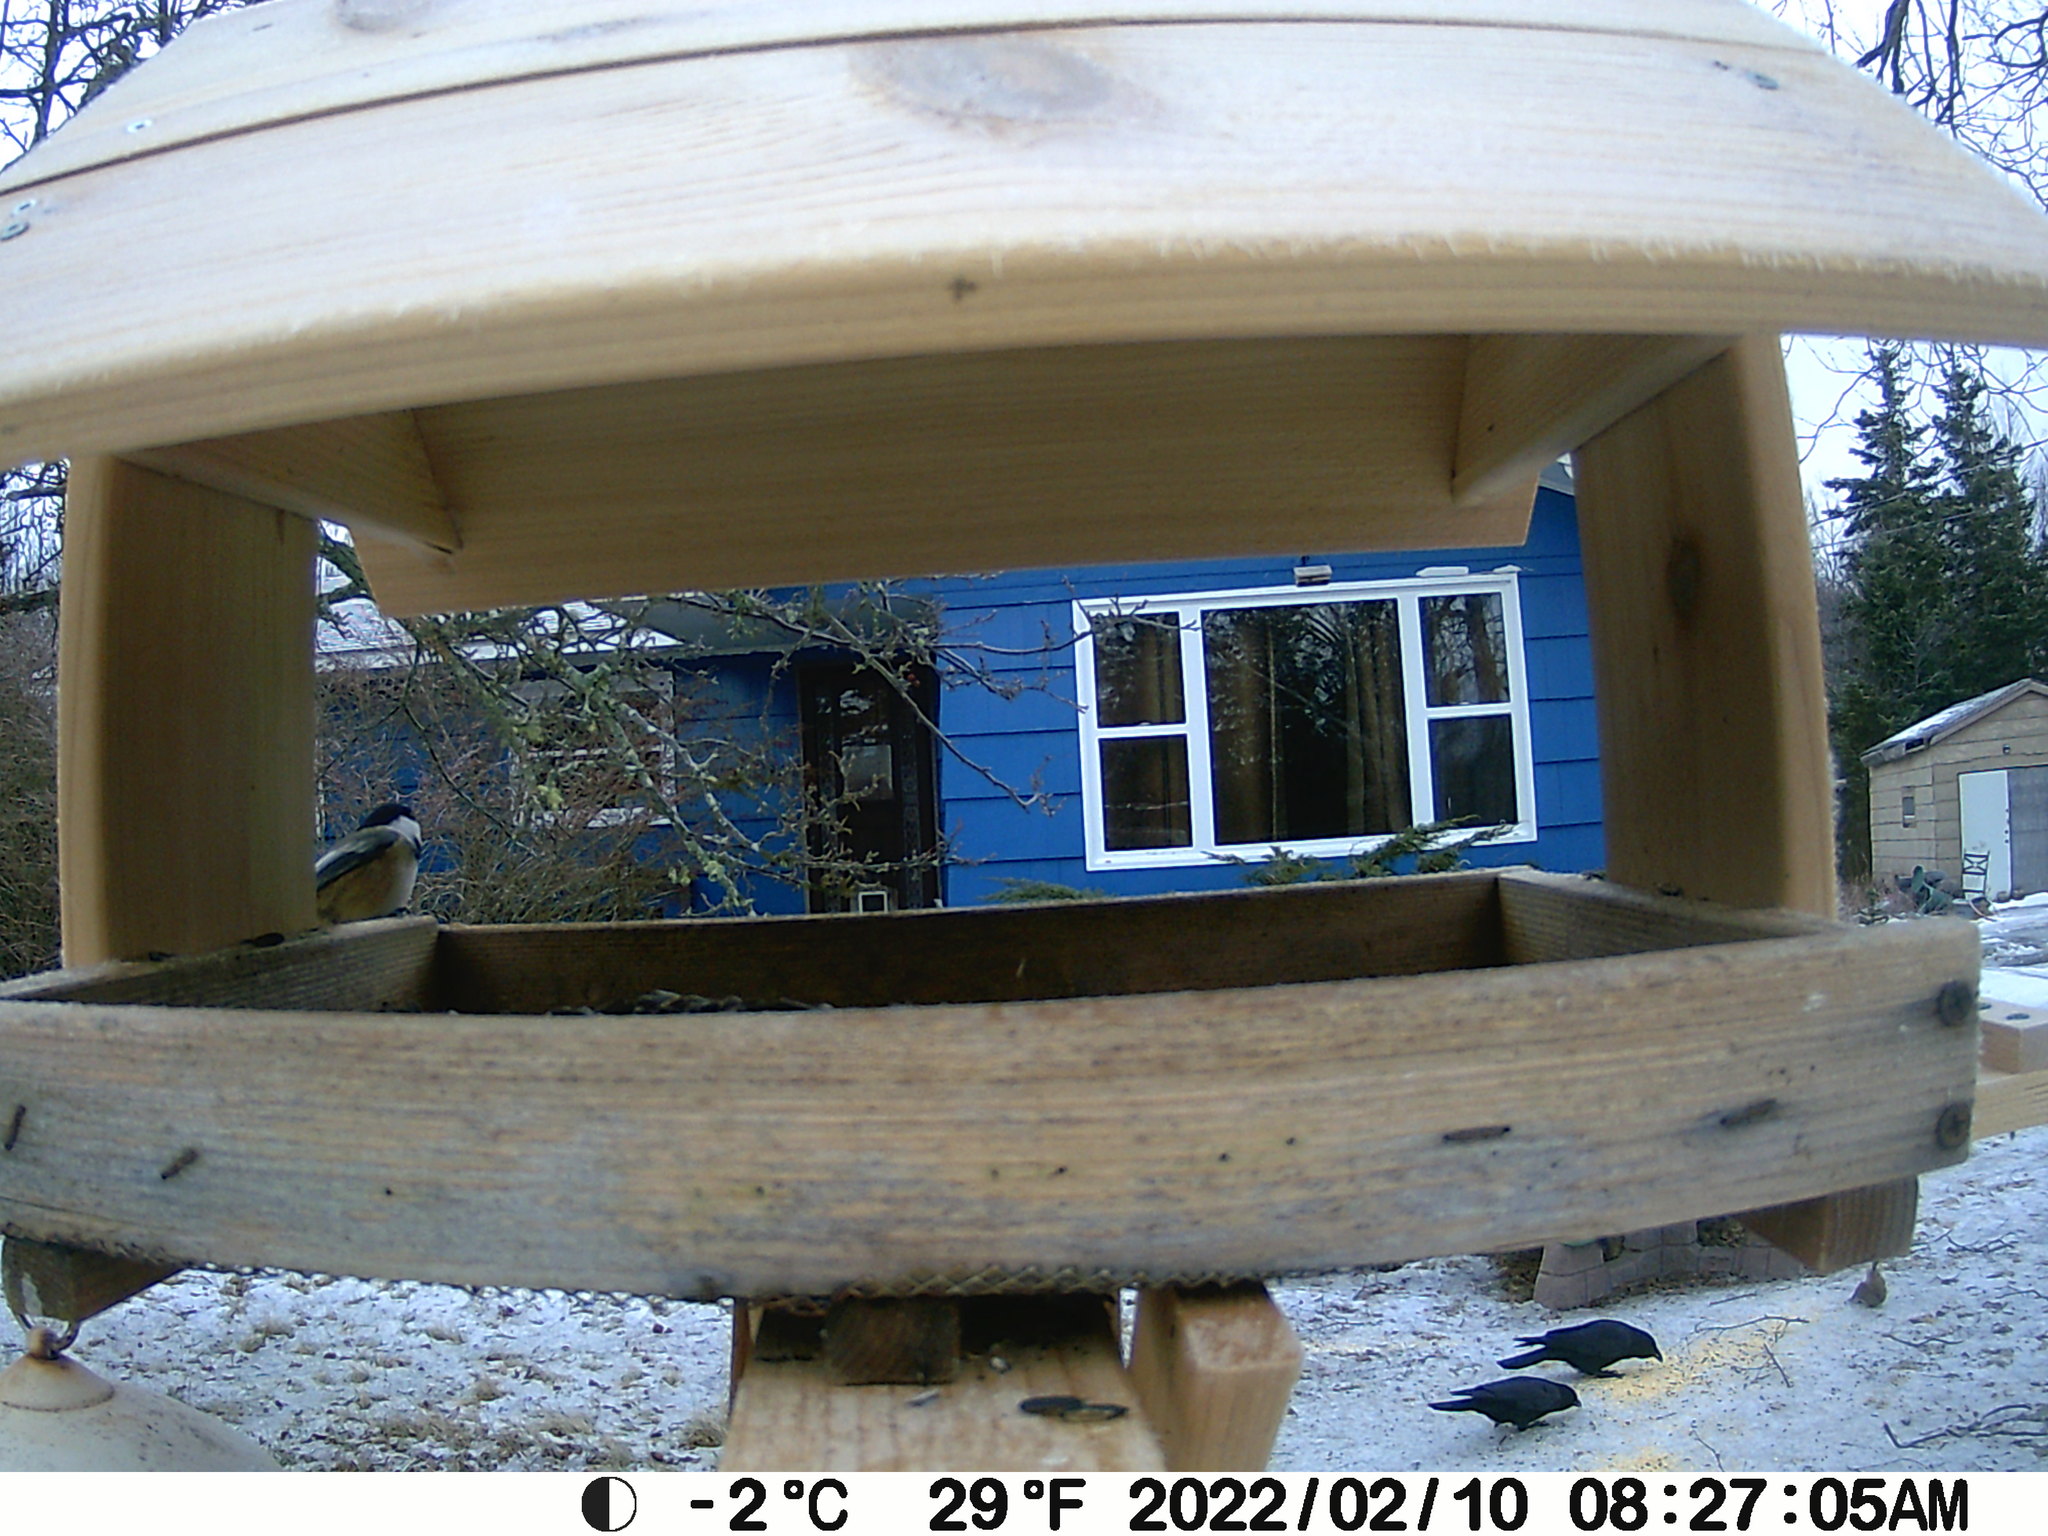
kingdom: Animalia
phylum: Chordata
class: Aves
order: Passeriformes
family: Corvidae
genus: Corvus
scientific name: Corvus brachyrhynchos
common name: American crow
